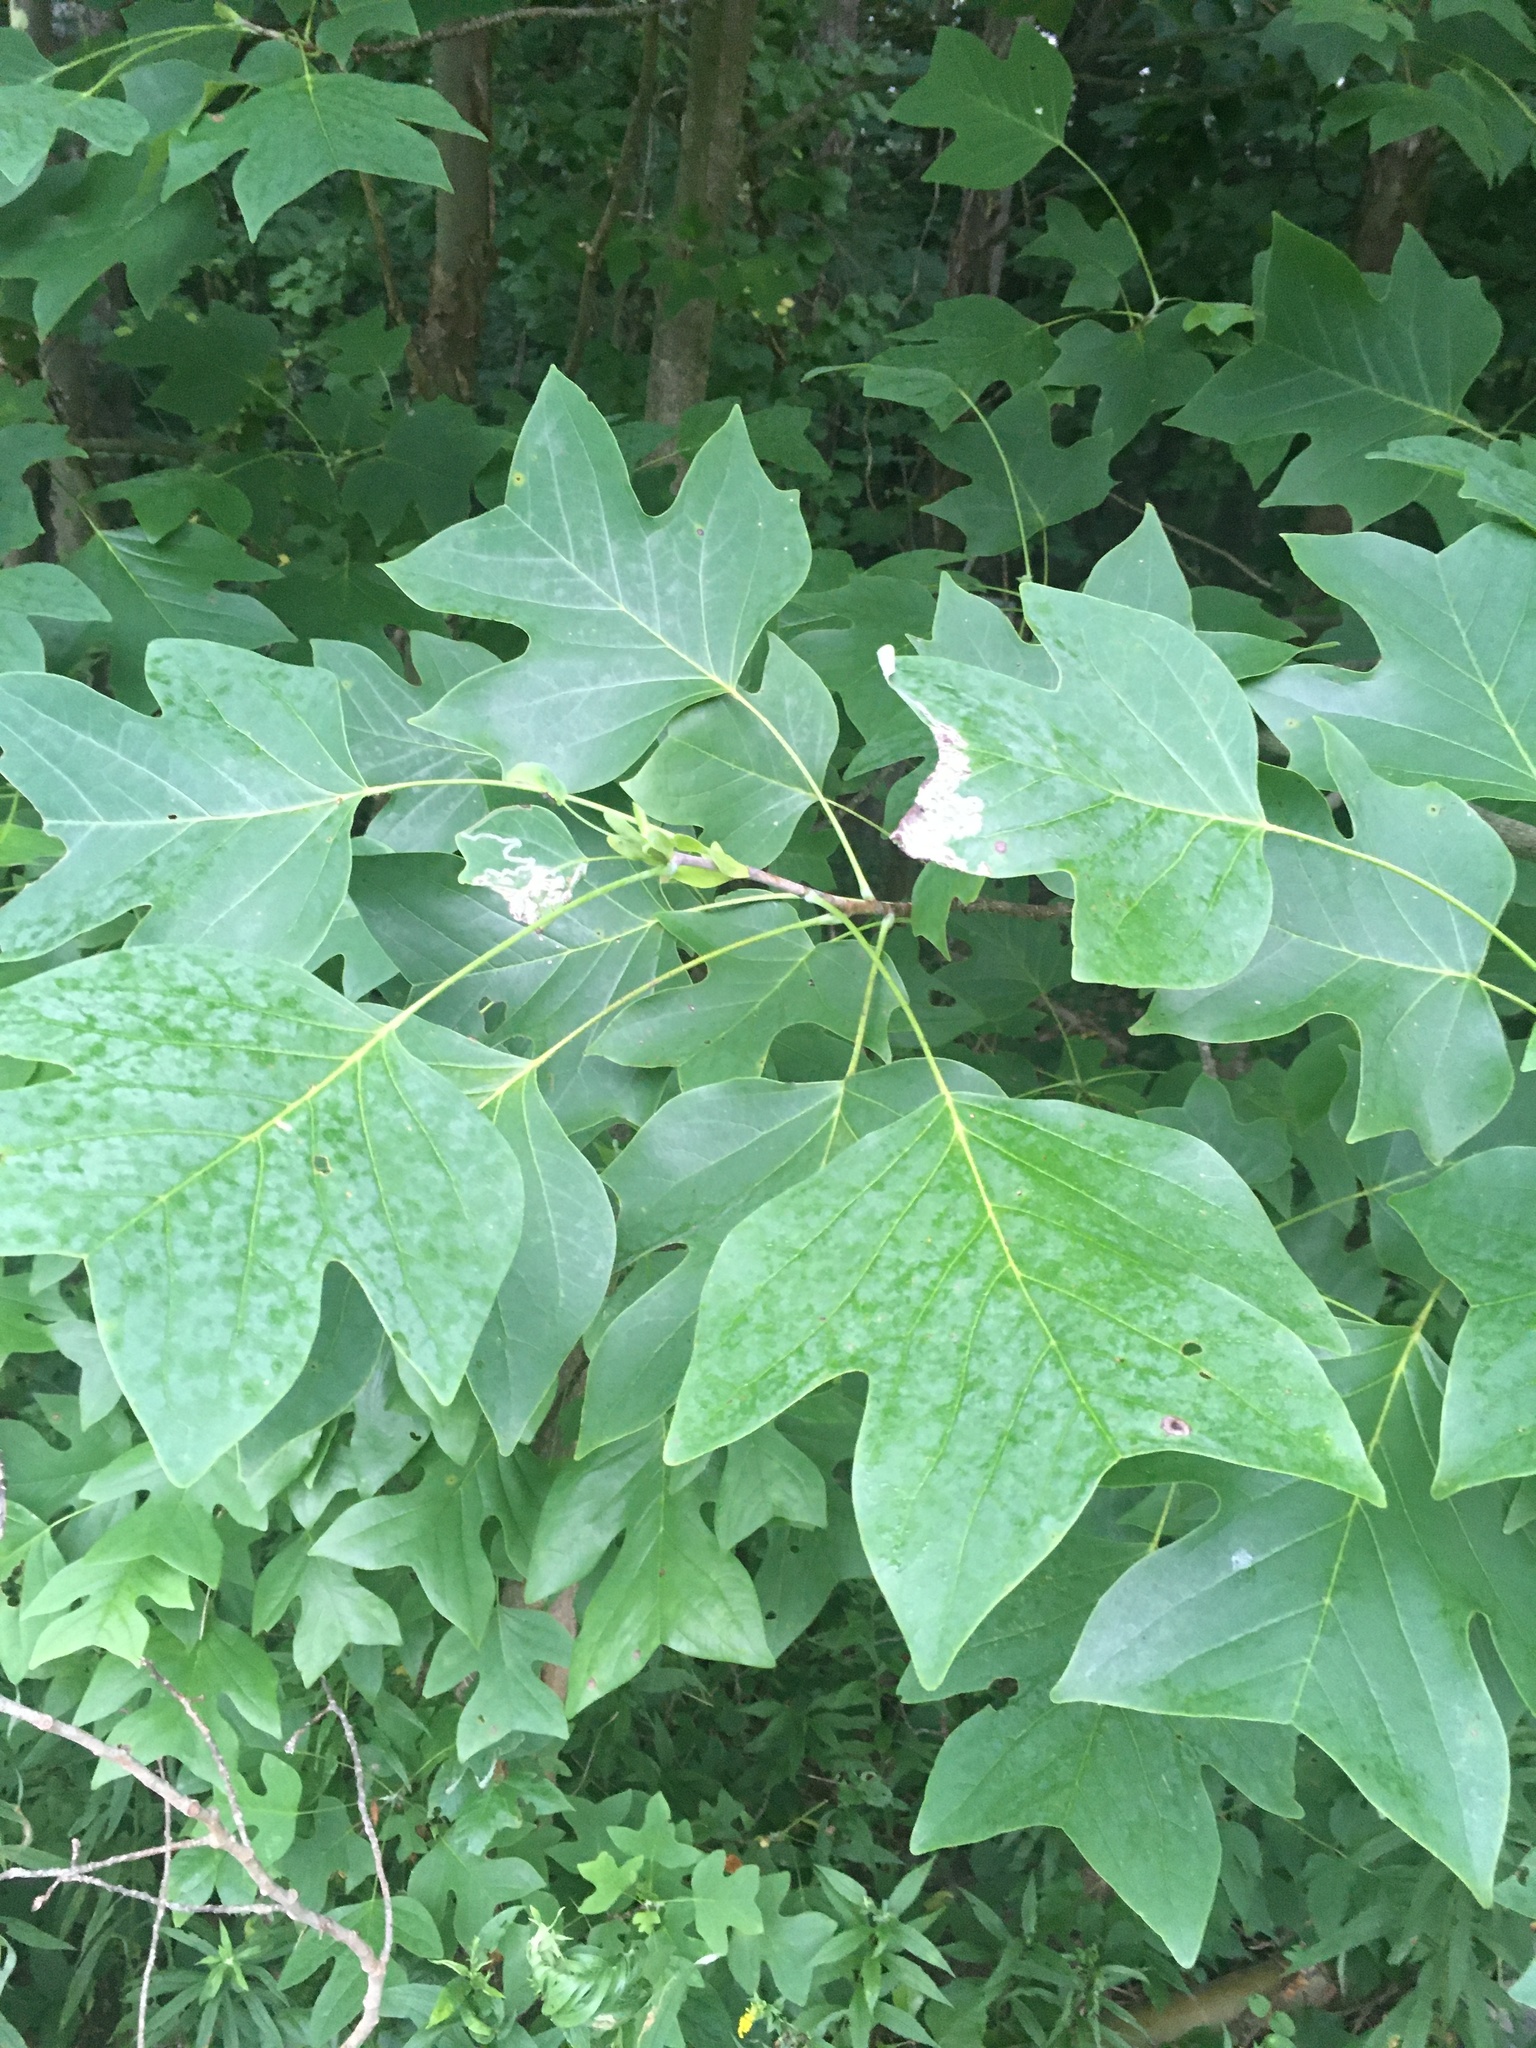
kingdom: Plantae
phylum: Tracheophyta
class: Magnoliopsida
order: Magnoliales
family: Magnoliaceae
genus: Liriodendron
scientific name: Liriodendron tulipifera
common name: Tulip tree
